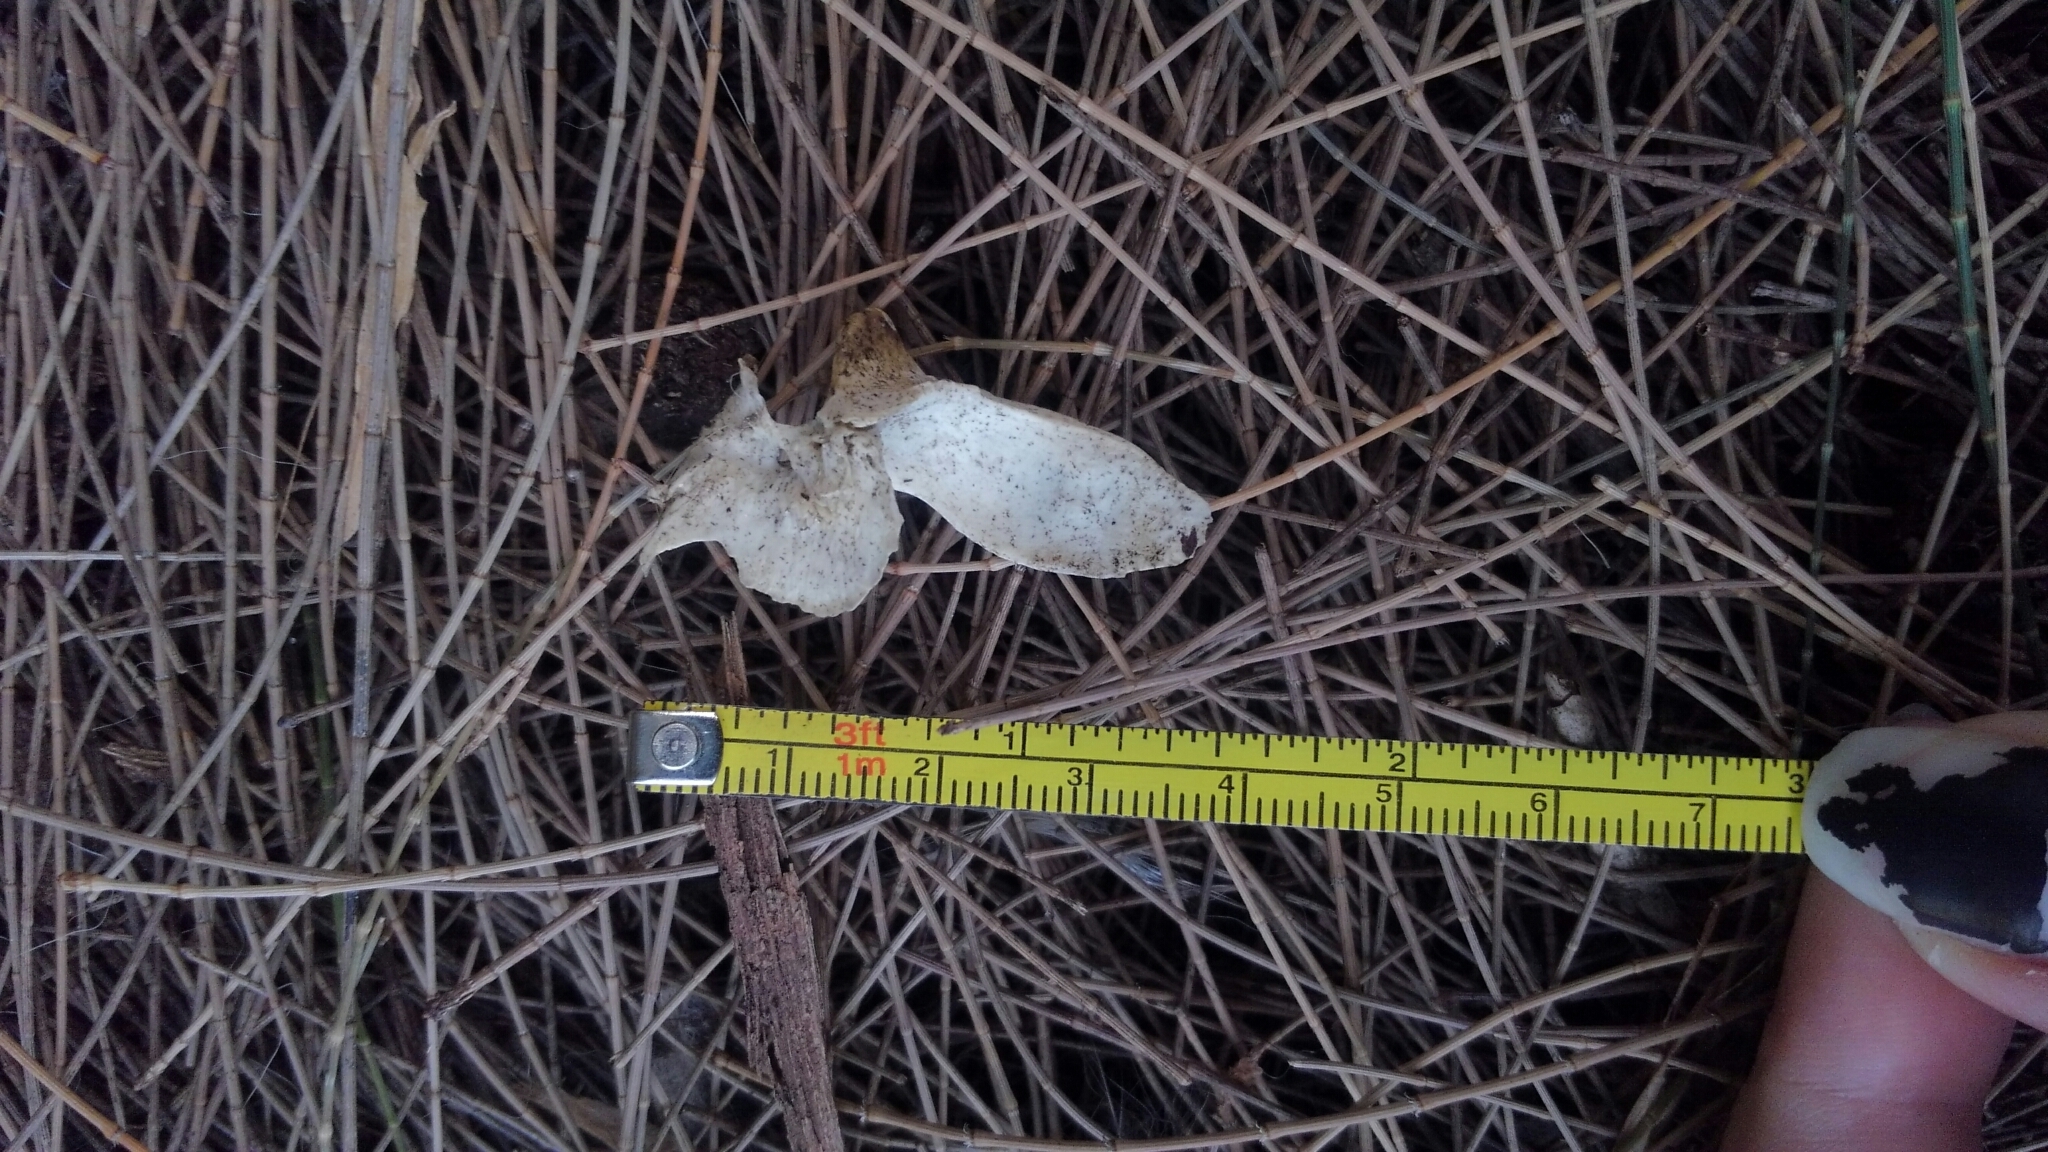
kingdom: Animalia
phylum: Chordata
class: Mammalia
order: Didelphimorphia
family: Didelphidae
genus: Didelphis
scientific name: Didelphis virginiana
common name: Virginia opossum
